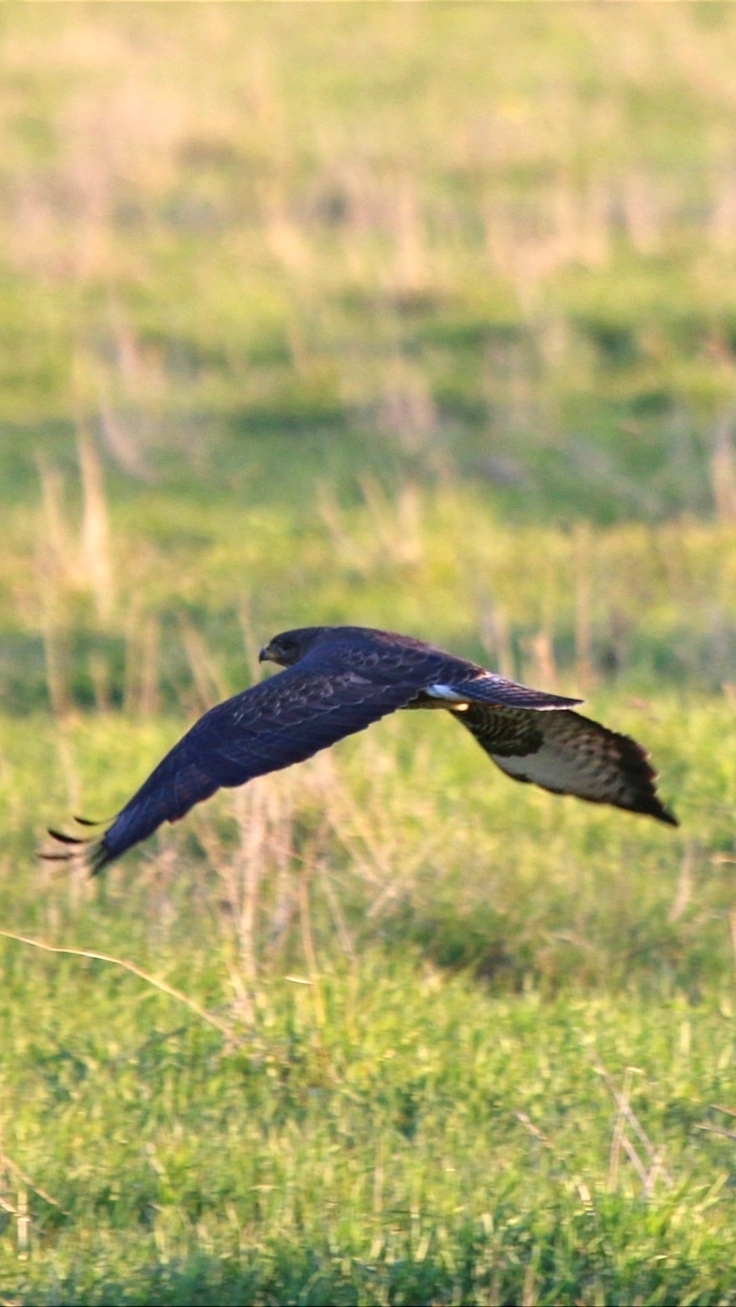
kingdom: Animalia
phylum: Chordata
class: Aves
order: Accipitriformes
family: Accipitridae
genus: Buteo
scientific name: Buteo buteo
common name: Common buzzard
